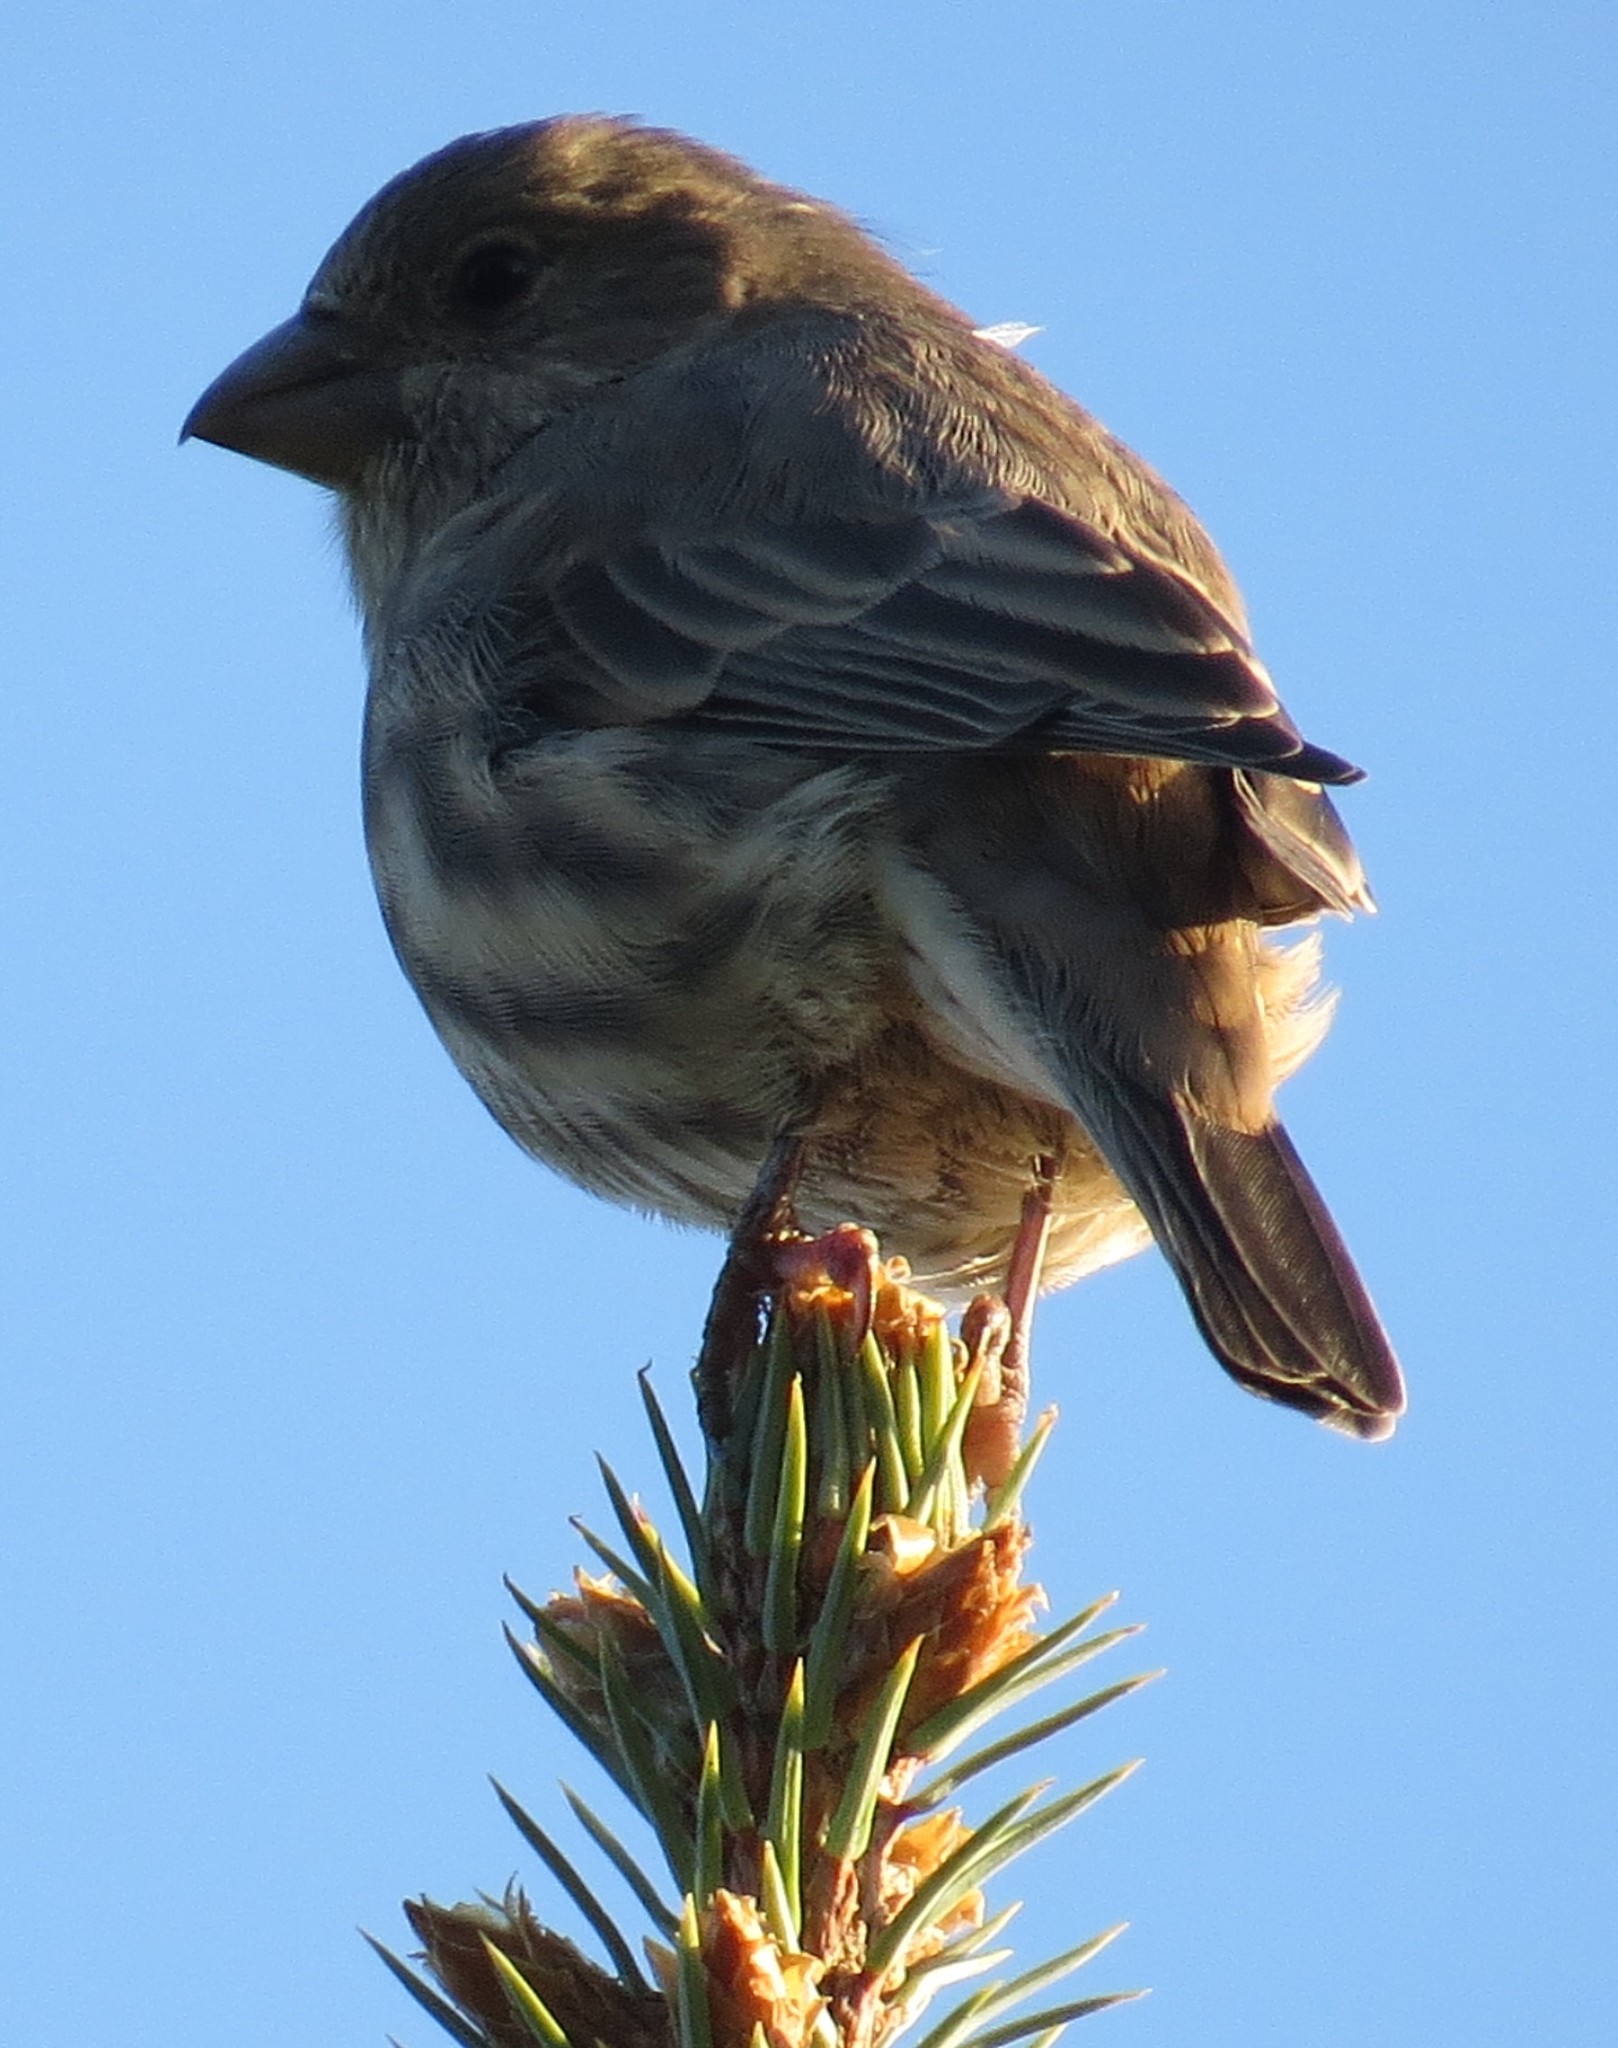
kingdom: Animalia
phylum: Chordata
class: Aves
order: Passeriformes
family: Fringillidae
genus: Haemorhous
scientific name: Haemorhous mexicanus
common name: House finch
